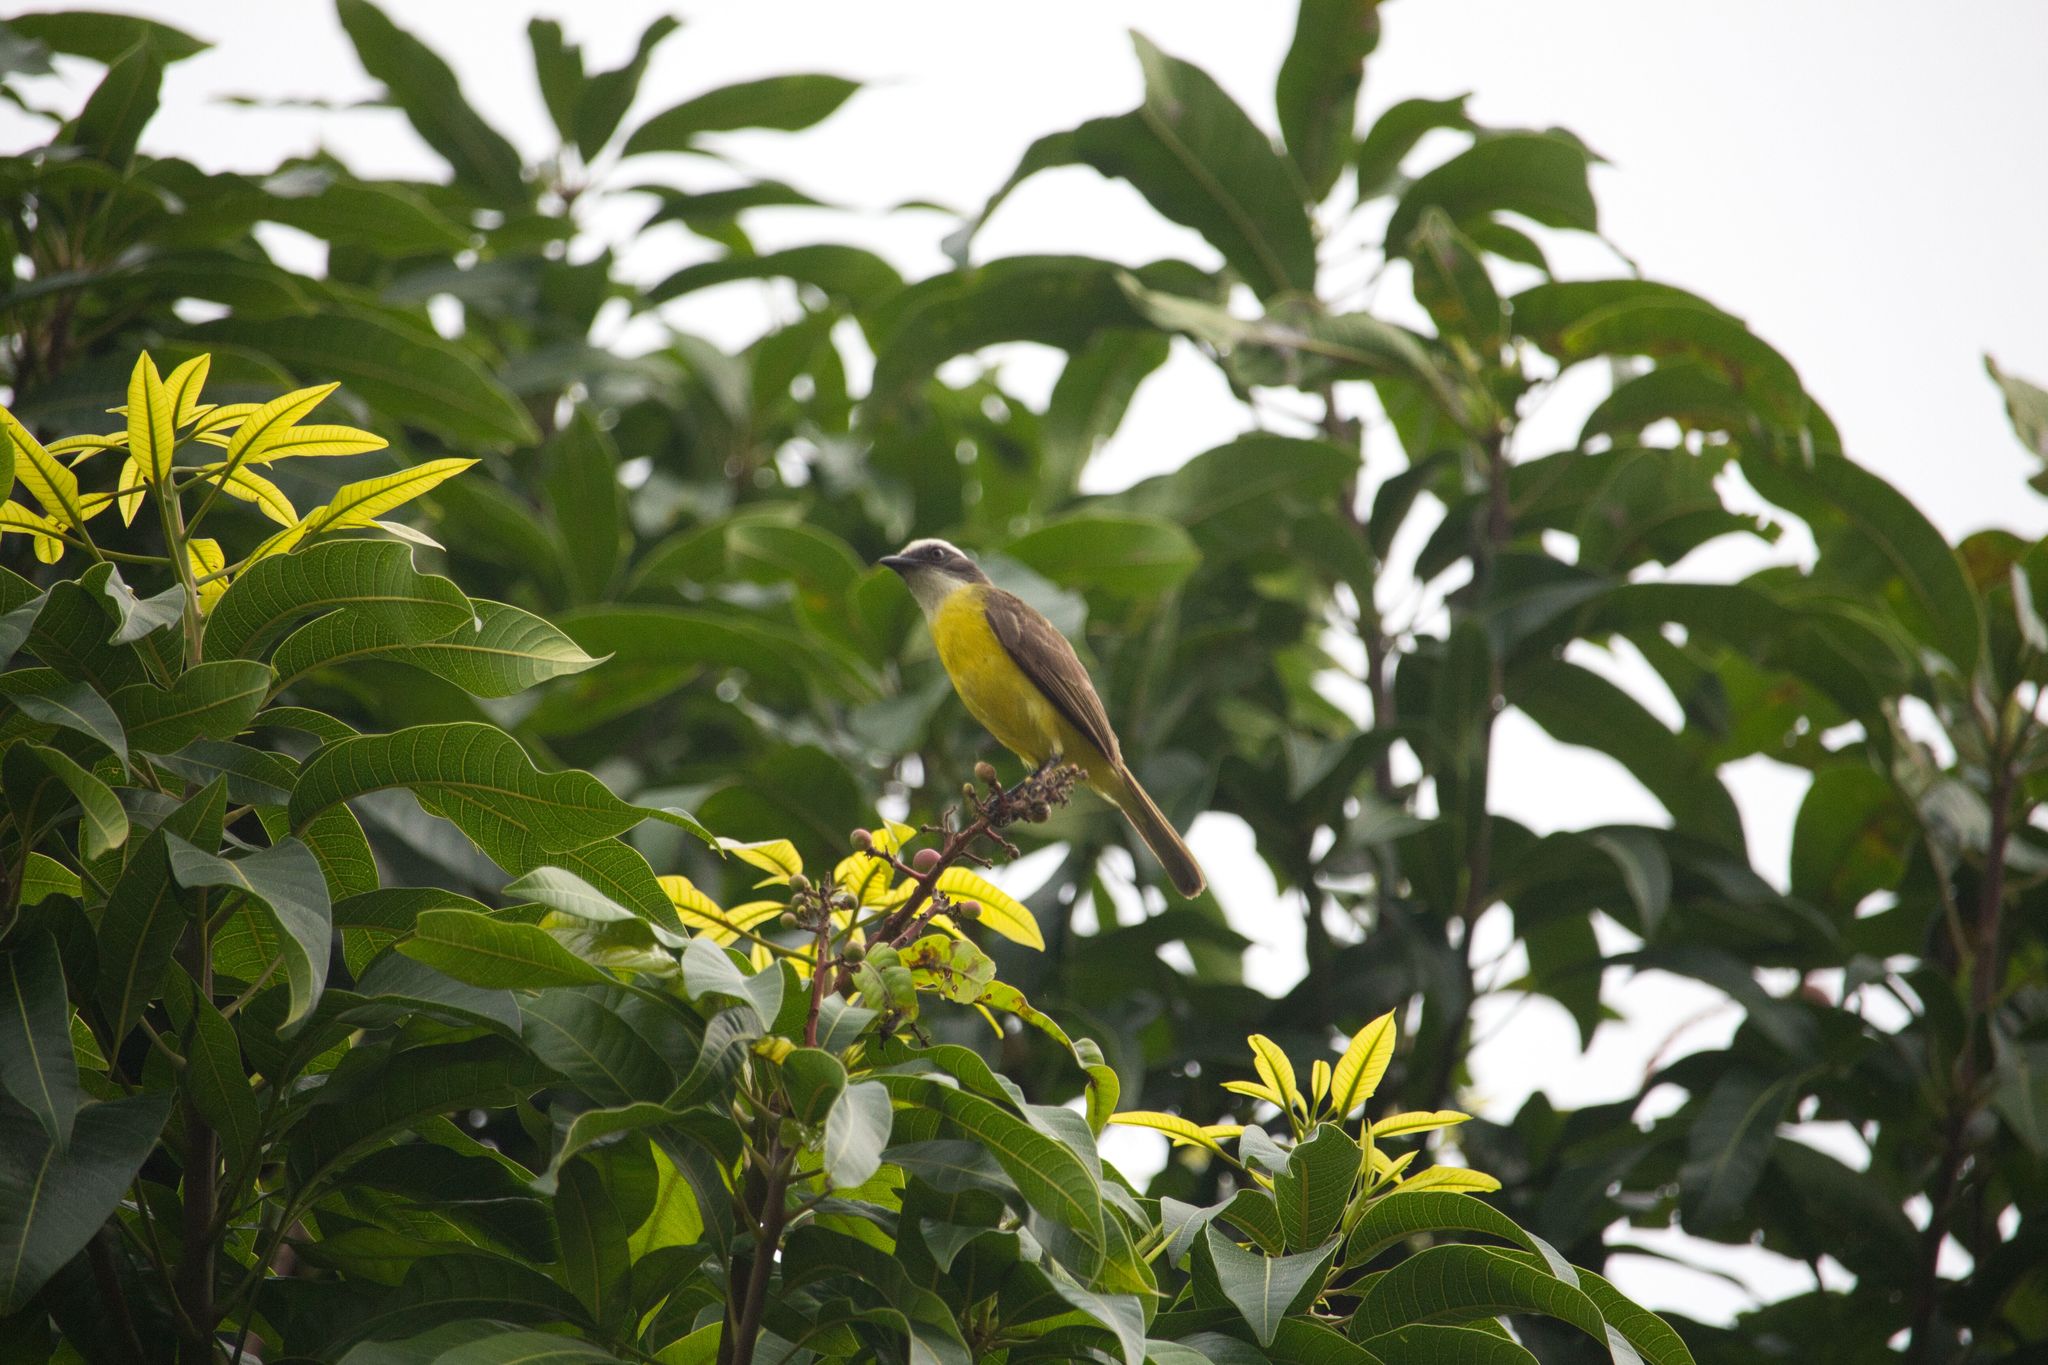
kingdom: Animalia
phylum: Chordata
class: Aves
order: Passeriformes
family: Tyrannidae
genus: Myiozetetes
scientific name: Myiozetetes similis
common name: Social flycatcher
